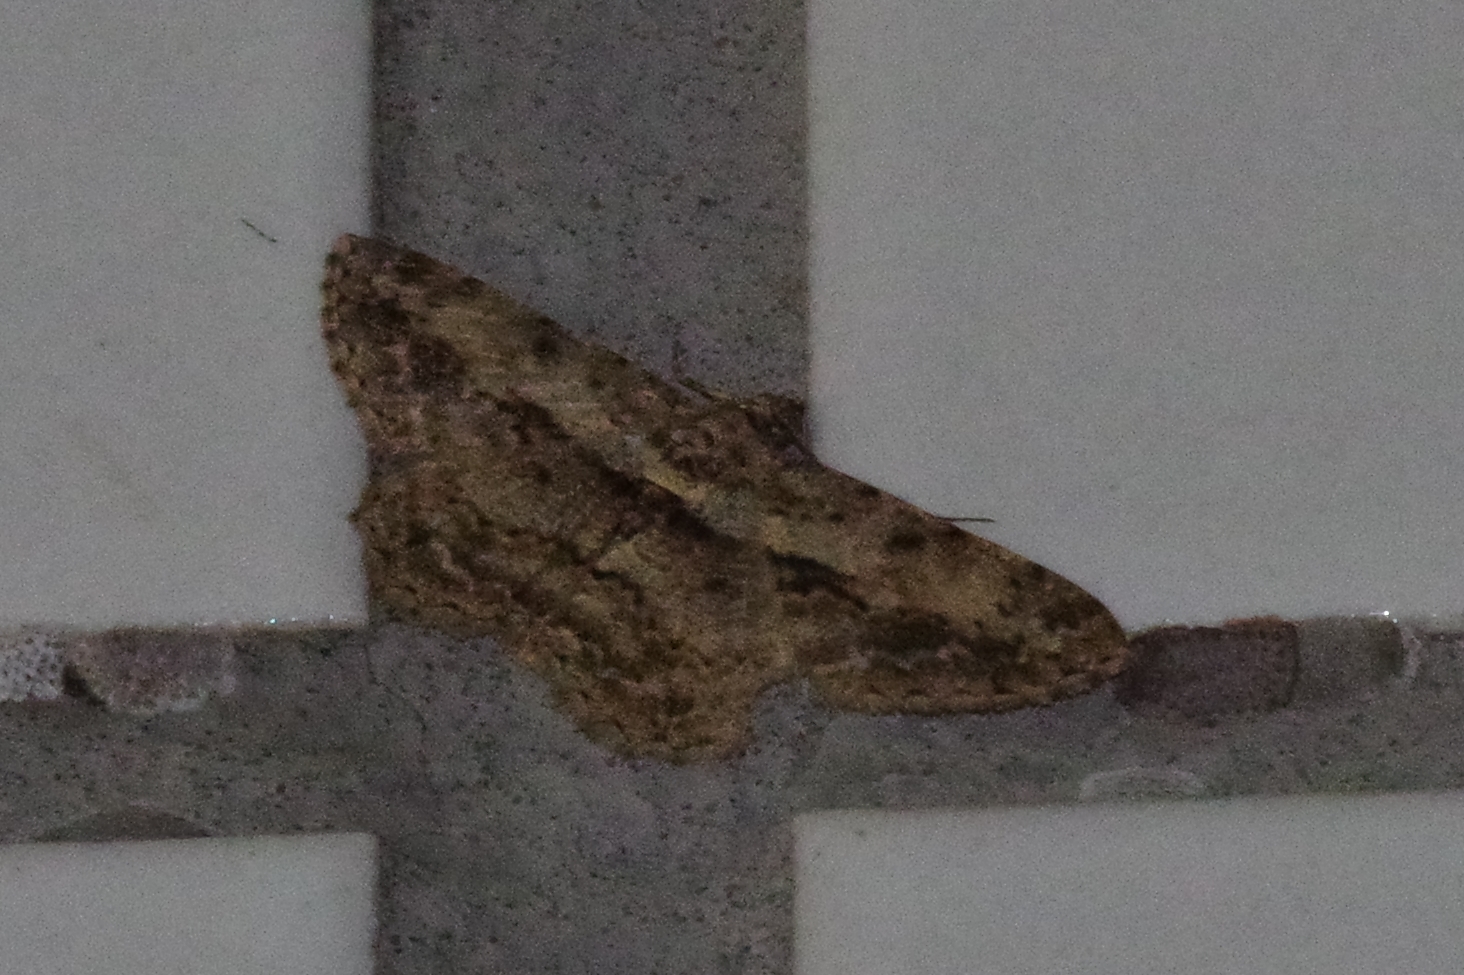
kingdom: Animalia
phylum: Arthropoda
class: Insecta
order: Lepidoptera
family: Geometridae
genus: Psilalcis
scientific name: Psilalcis breta
